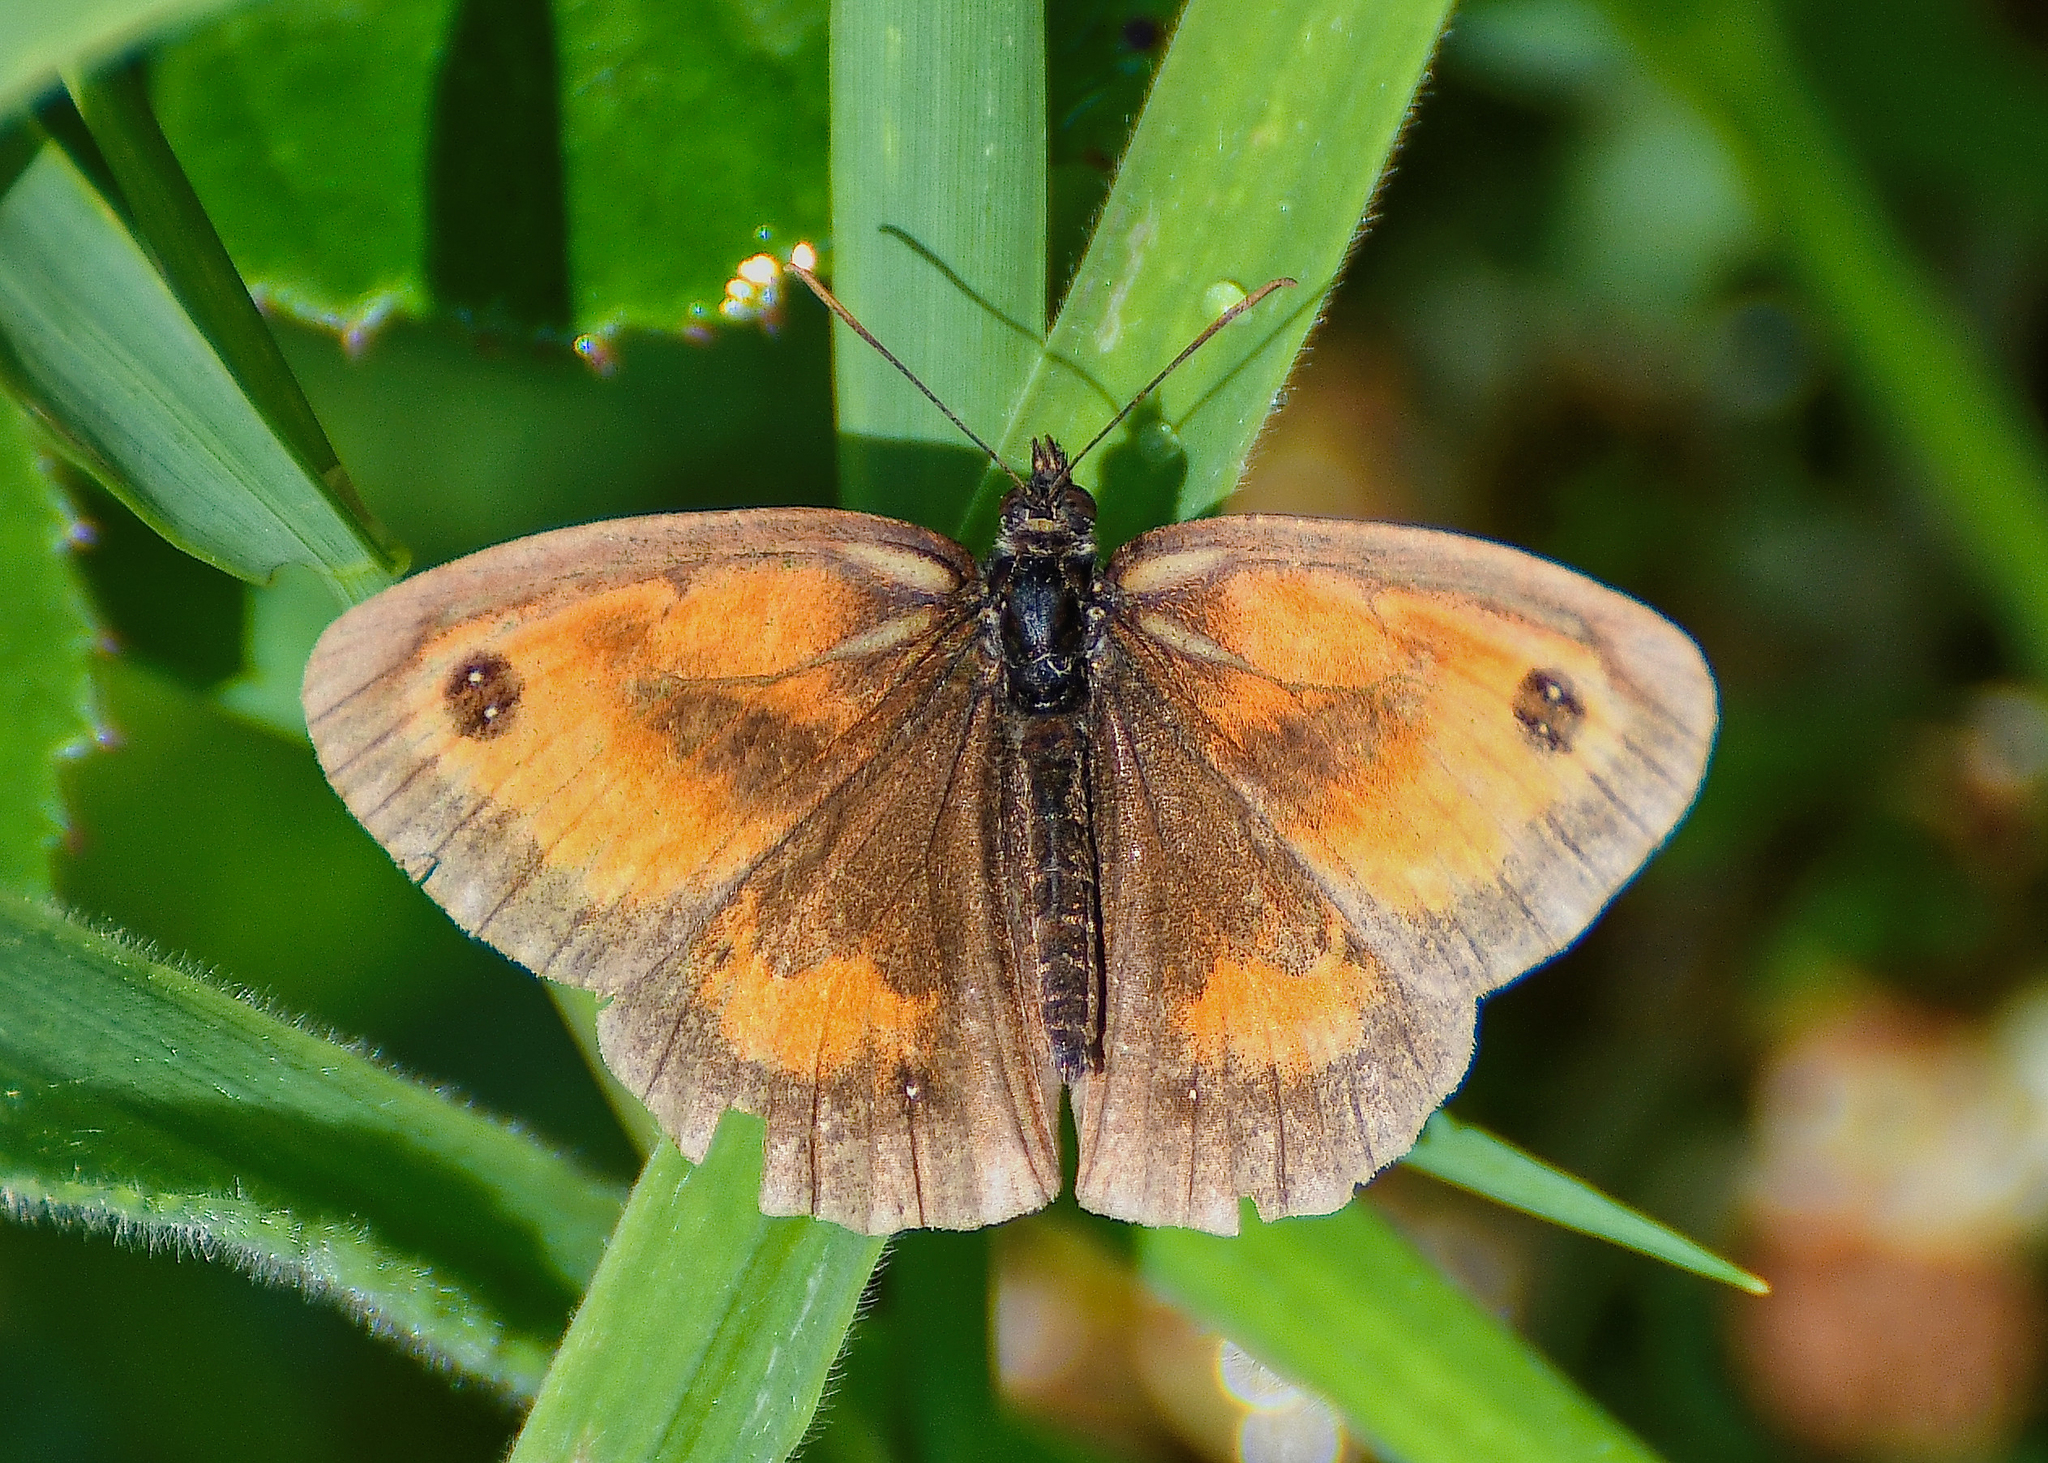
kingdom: Animalia
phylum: Arthropoda
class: Insecta
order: Lepidoptera
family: Nymphalidae
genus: Pyronia
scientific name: Pyronia tithonus
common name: Gatekeeper
